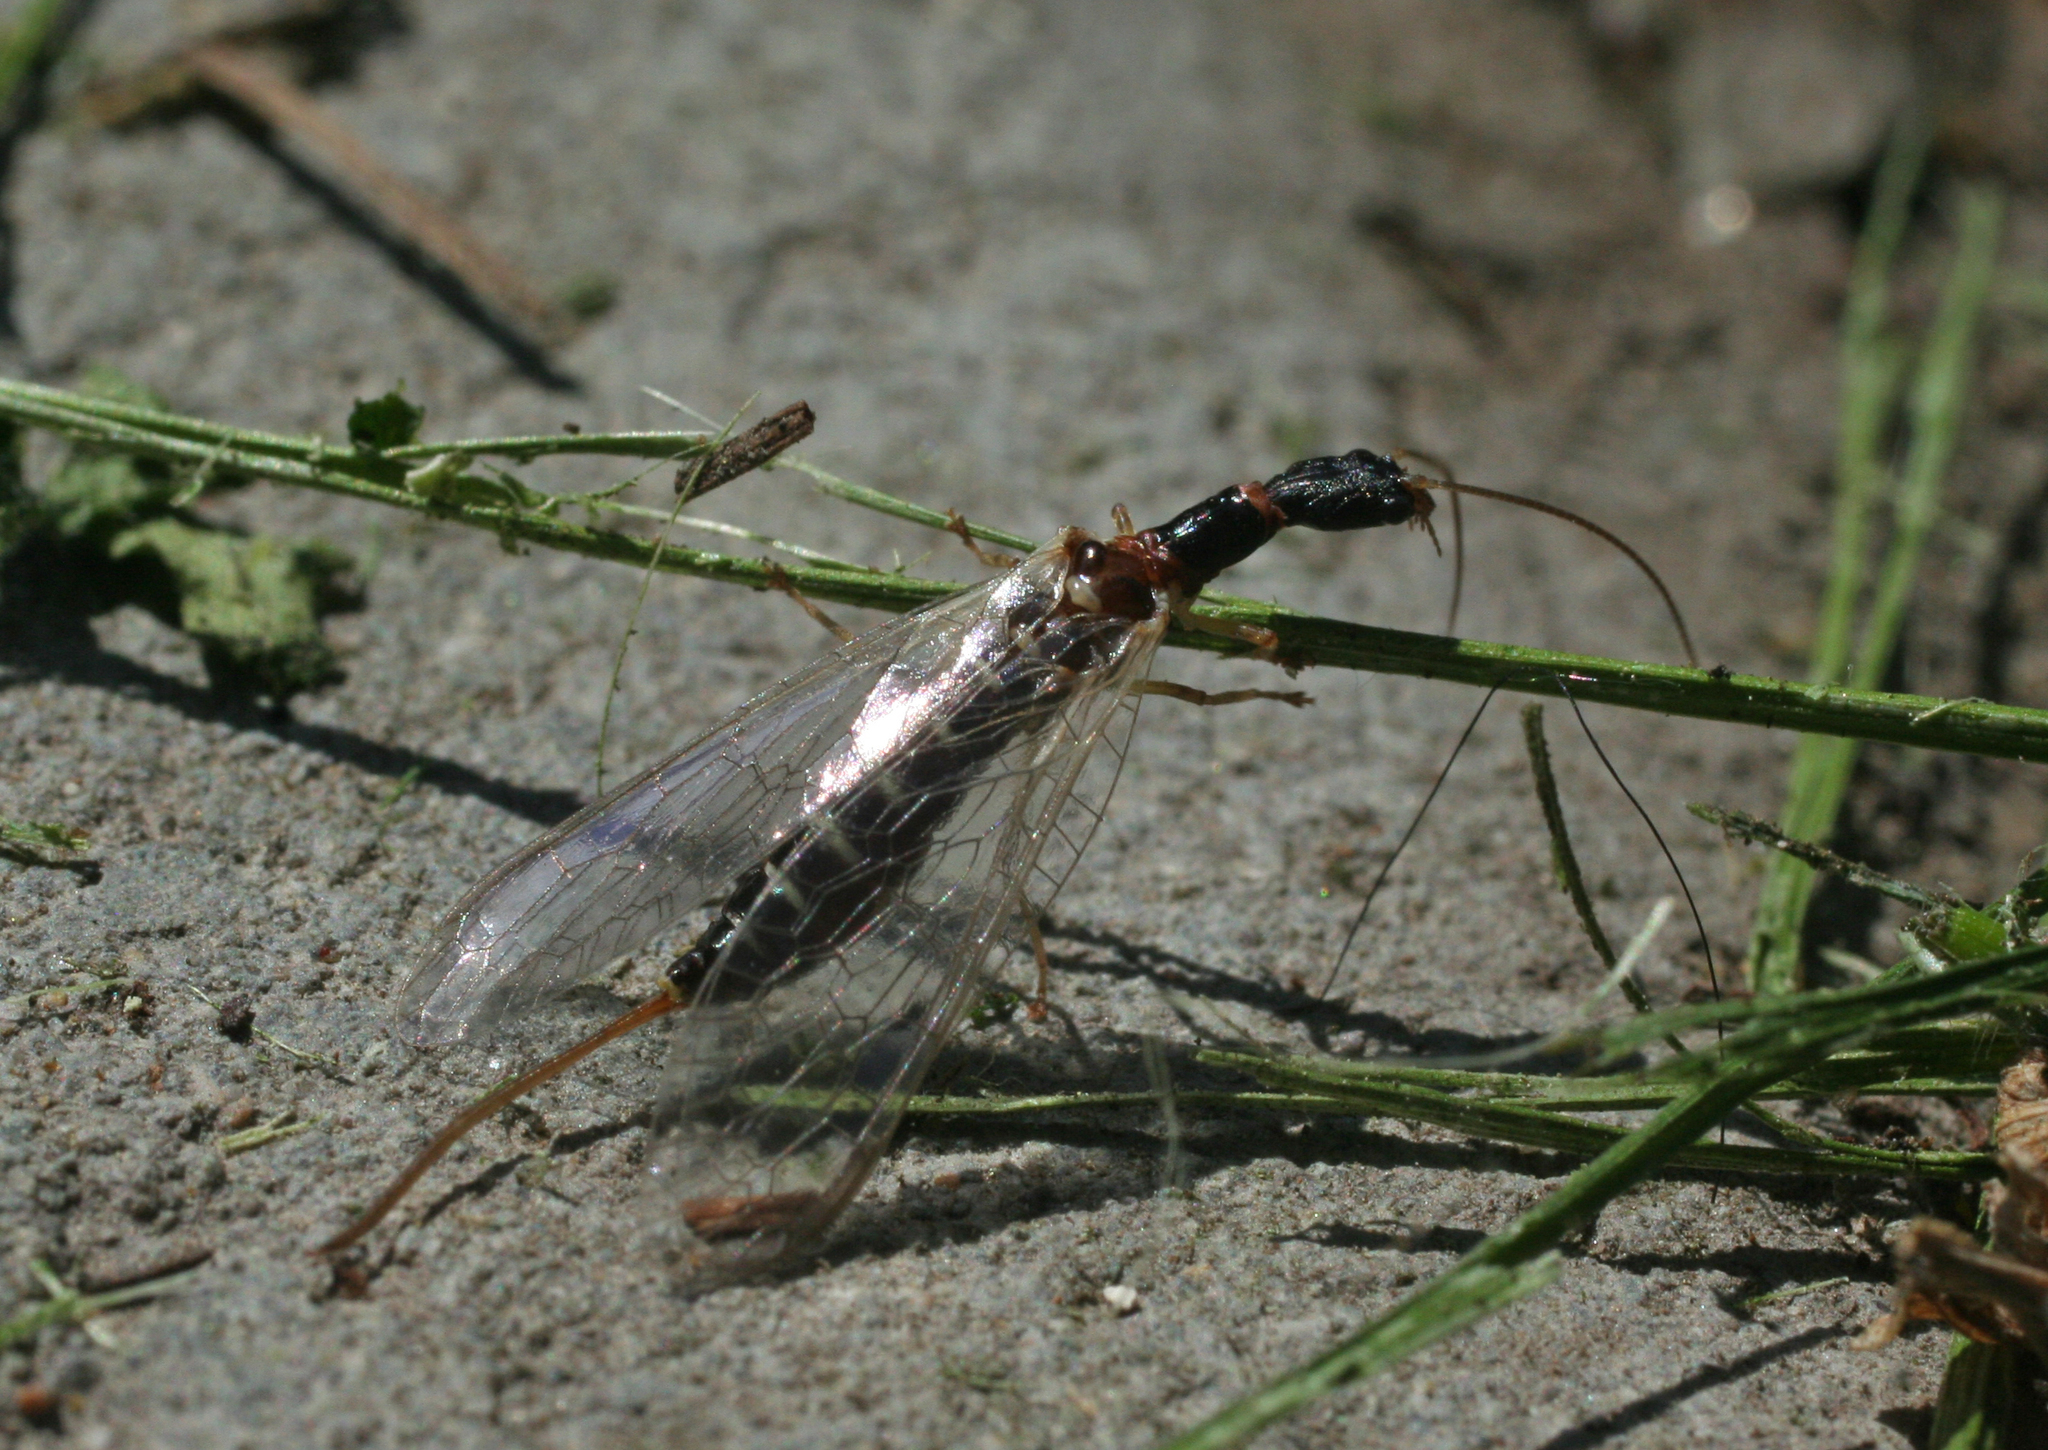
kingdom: Animalia
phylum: Arthropoda
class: Insecta
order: Raphidioptera
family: Inocelliidae
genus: Inocellia
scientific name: Inocellia crassicornis
